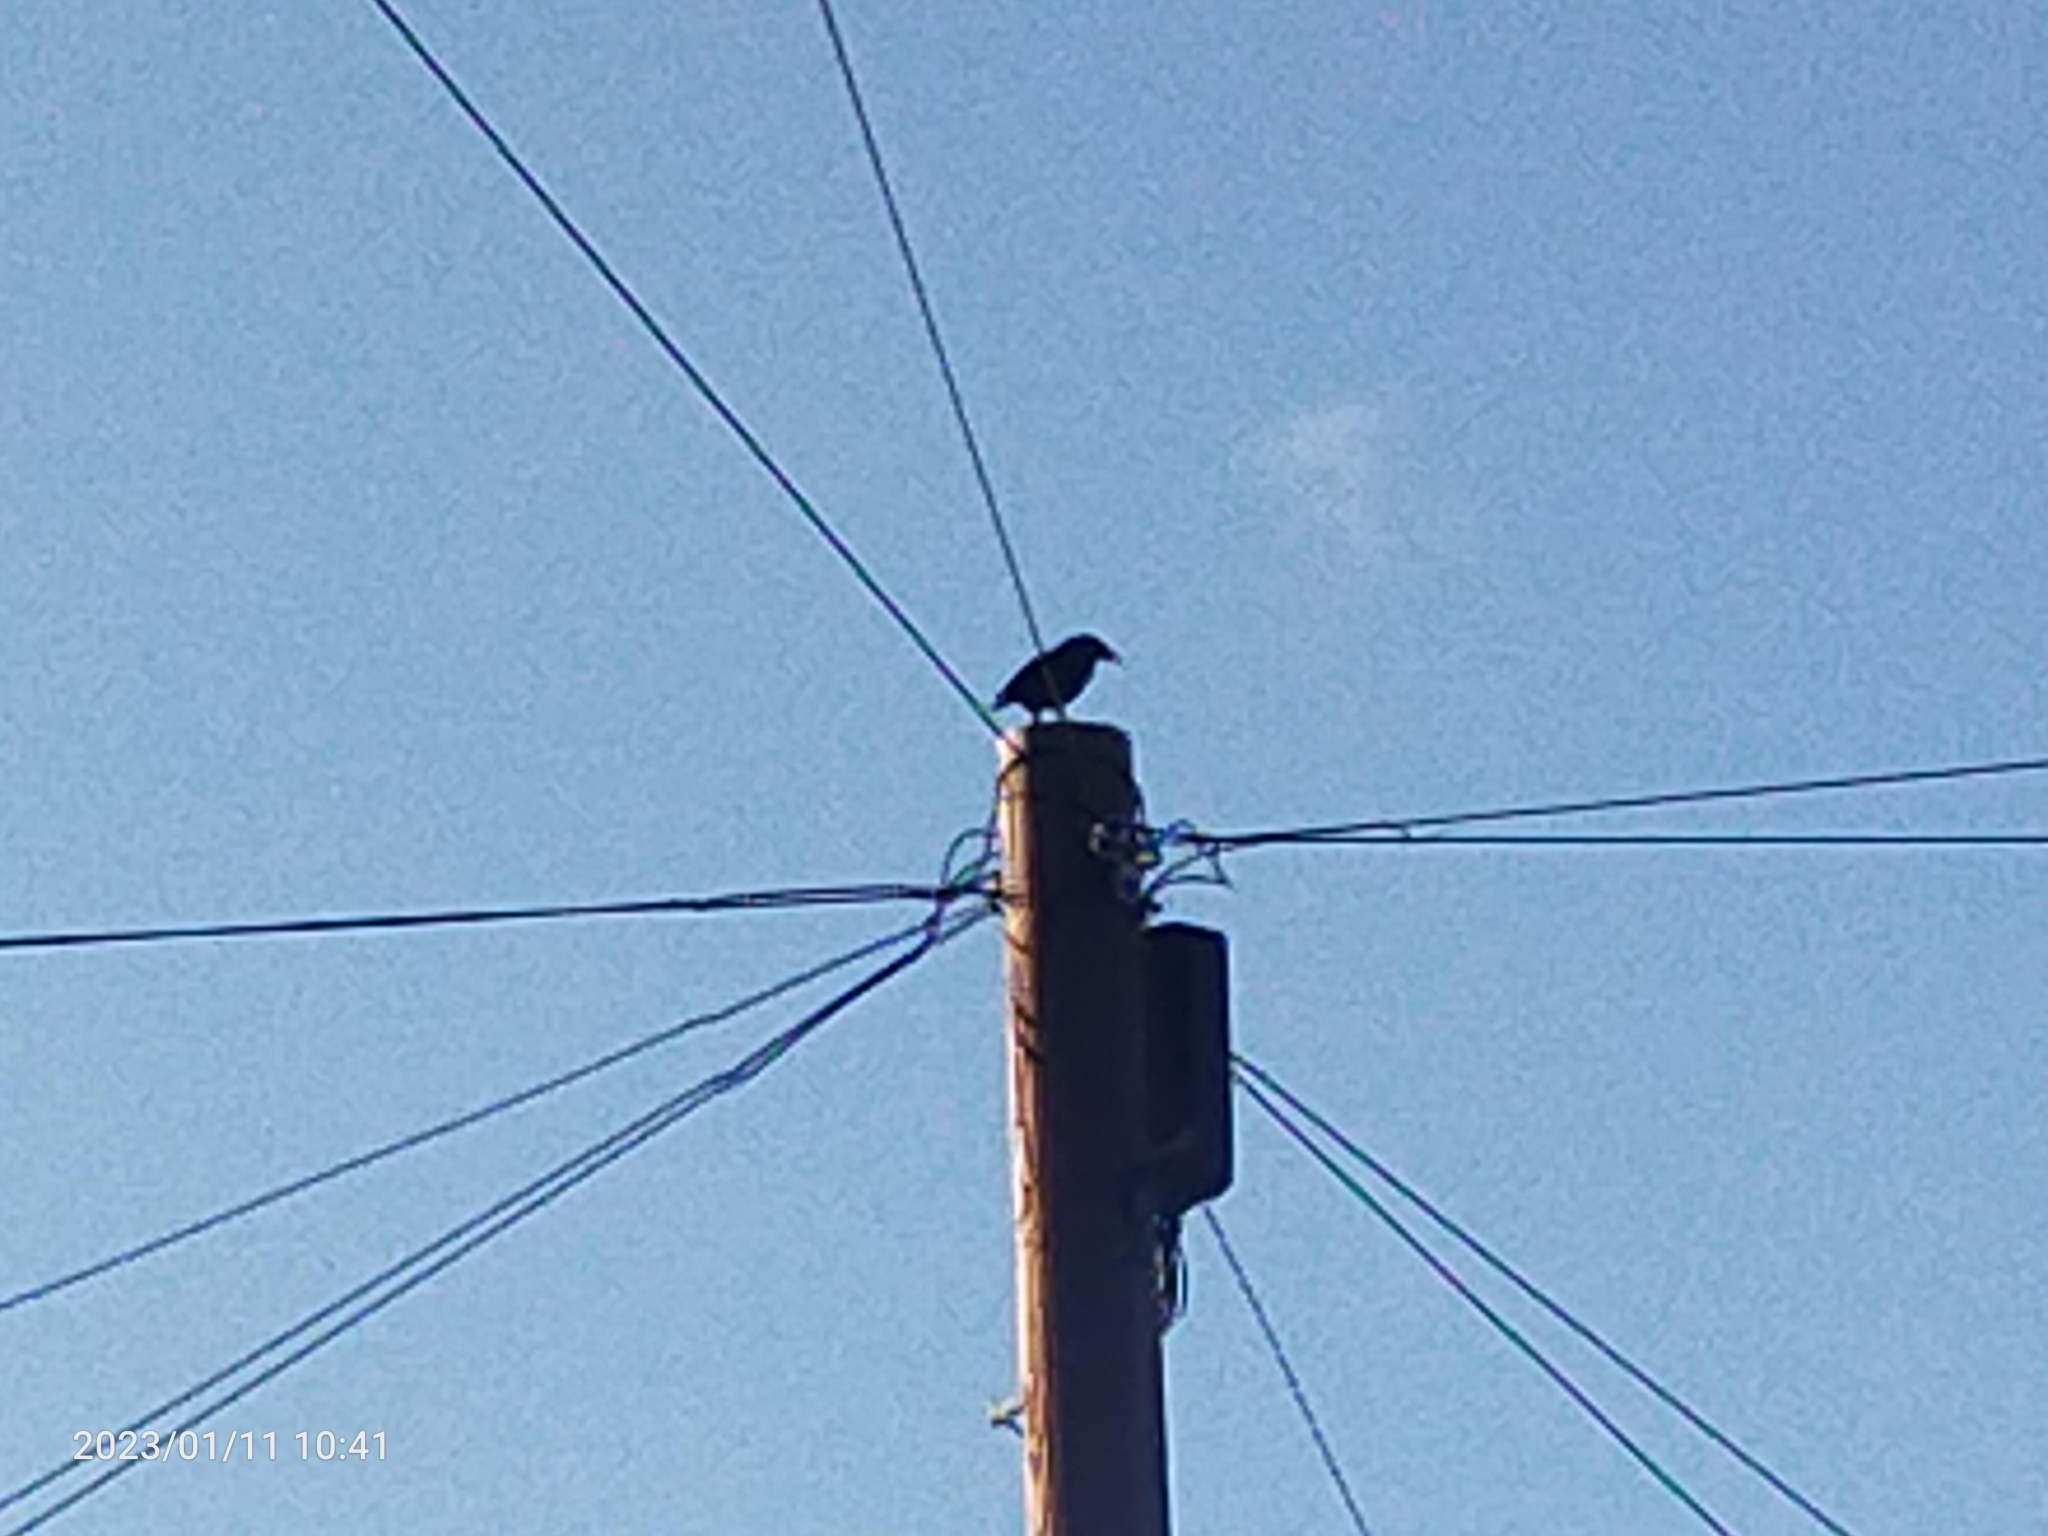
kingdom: Animalia
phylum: Chordata
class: Aves
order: Passeriformes
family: Corvidae
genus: Corvus
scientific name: Corvus corone
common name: Carrion crow
